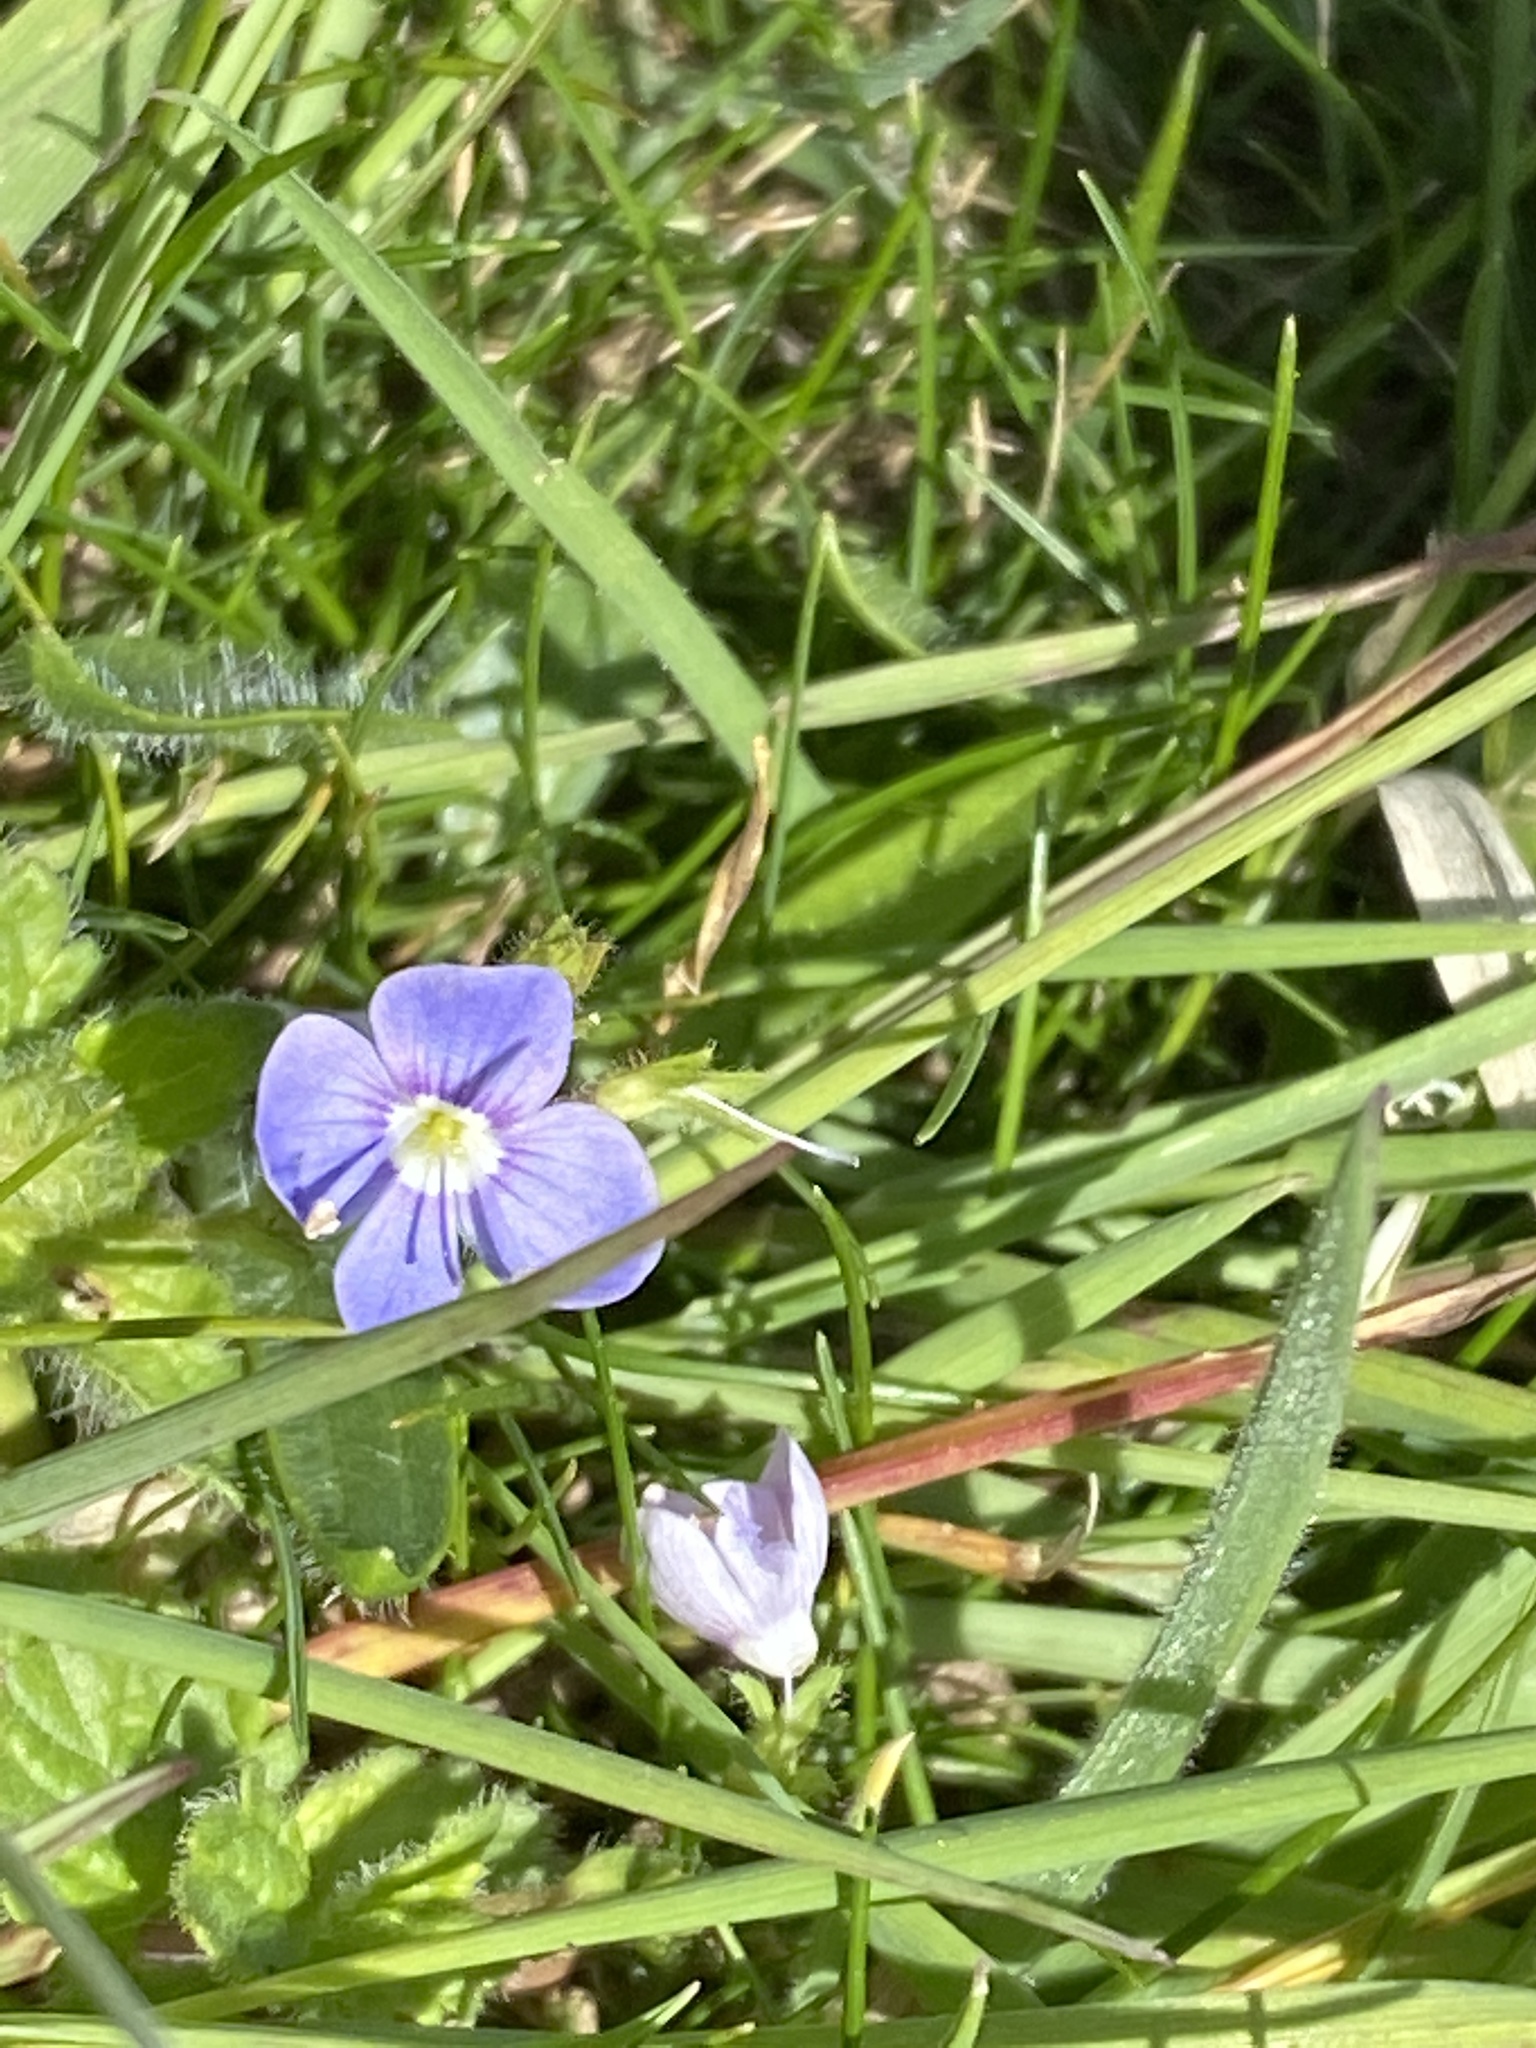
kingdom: Plantae
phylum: Tracheophyta
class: Magnoliopsida
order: Lamiales
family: Plantaginaceae
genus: Veronica
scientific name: Veronica chamaedrys
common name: Germander speedwell
